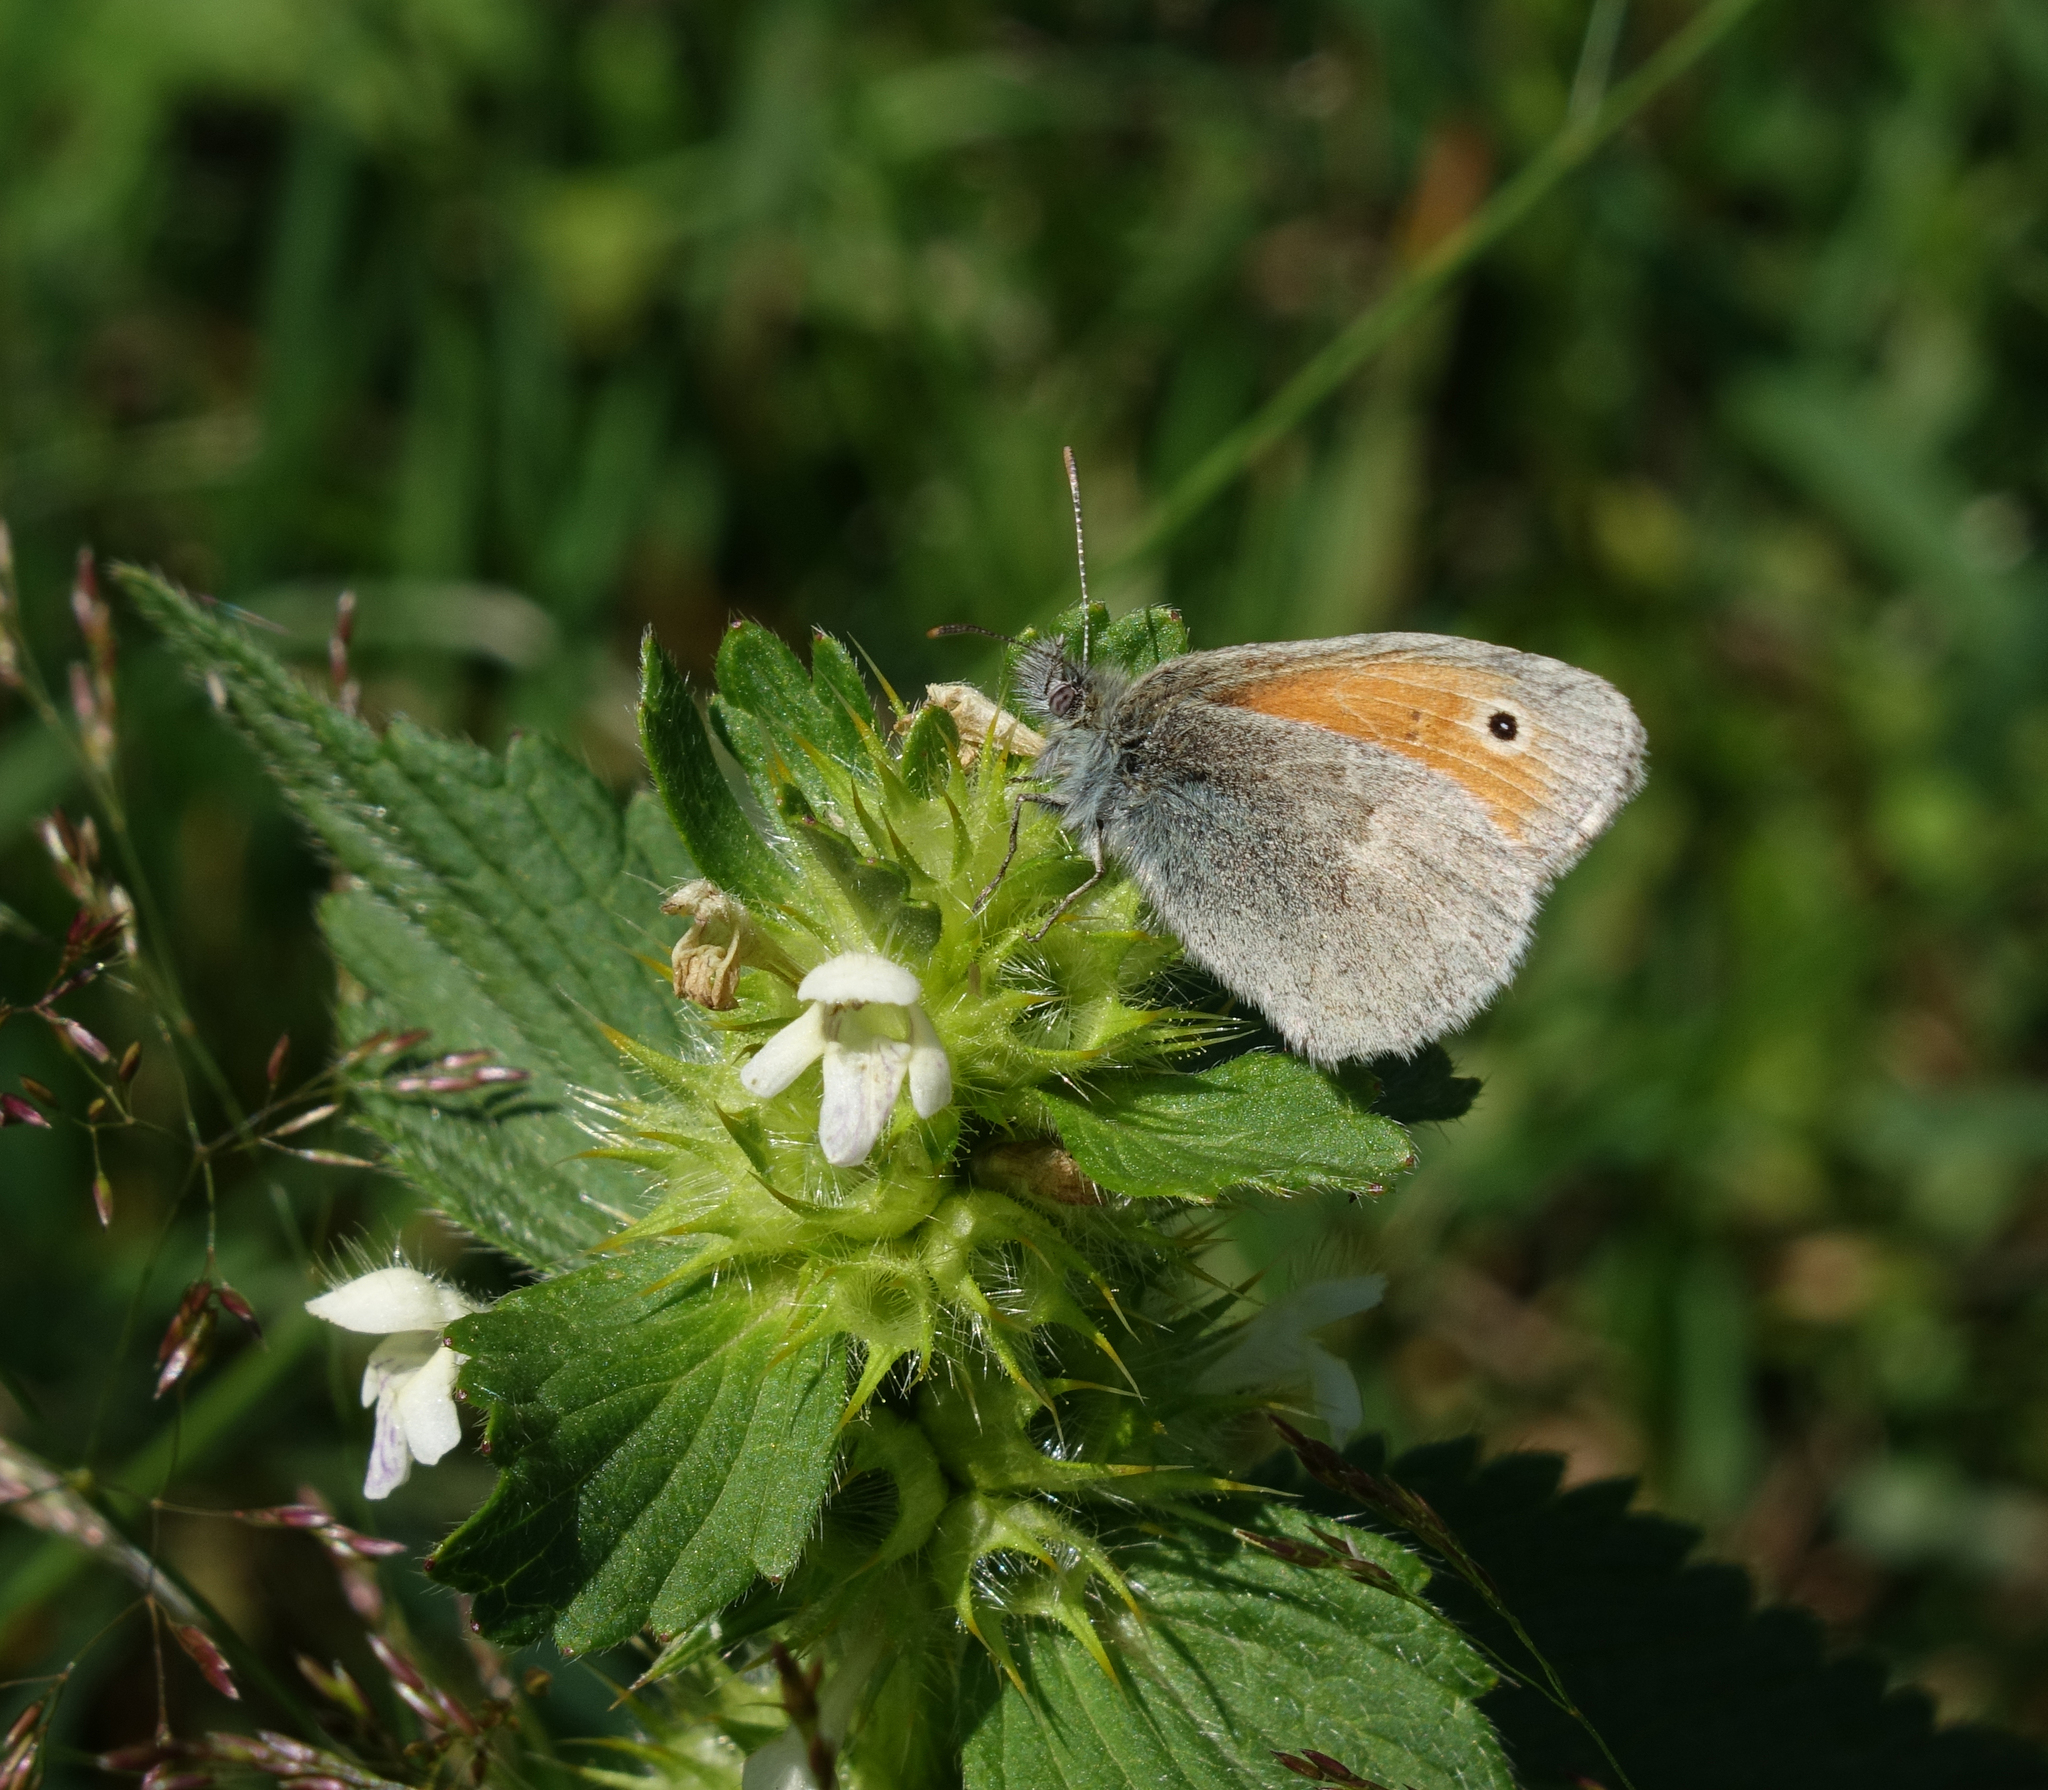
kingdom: Animalia
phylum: Arthropoda
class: Insecta
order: Lepidoptera
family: Nymphalidae
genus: Coenonympha
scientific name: Coenonympha pamphilus
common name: Small heath
